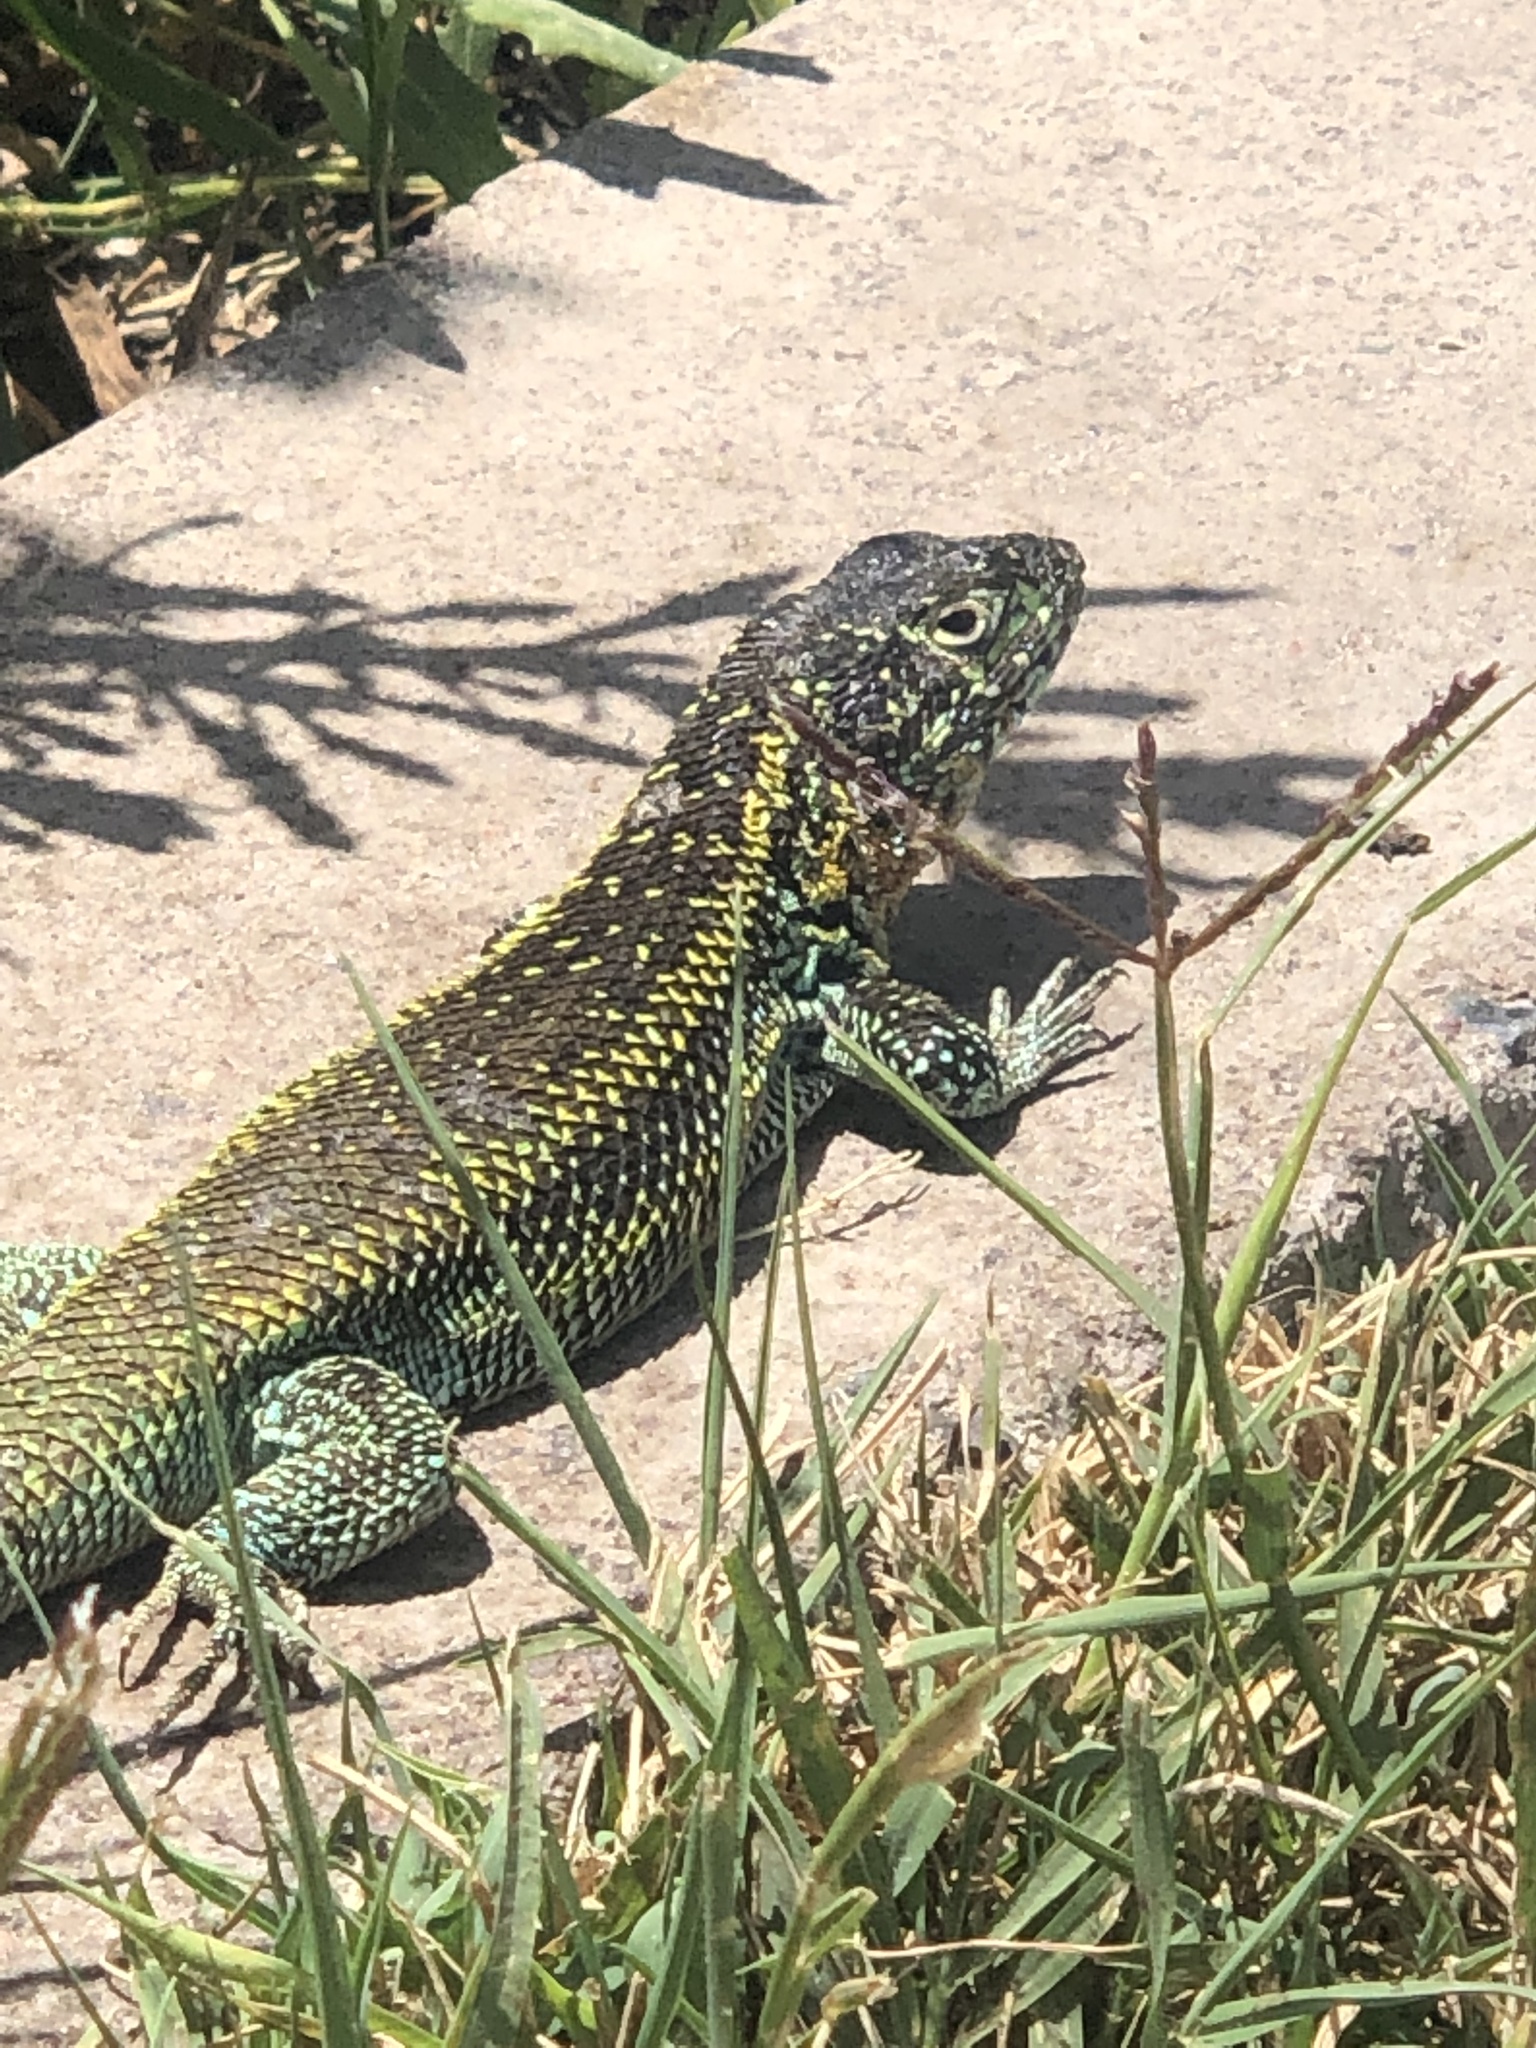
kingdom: Animalia
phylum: Chordata
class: Squamata
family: Liolaemidae
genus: Liolaemus
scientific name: Liolaemus zapallarensis
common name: Zapallaren tree iguana
